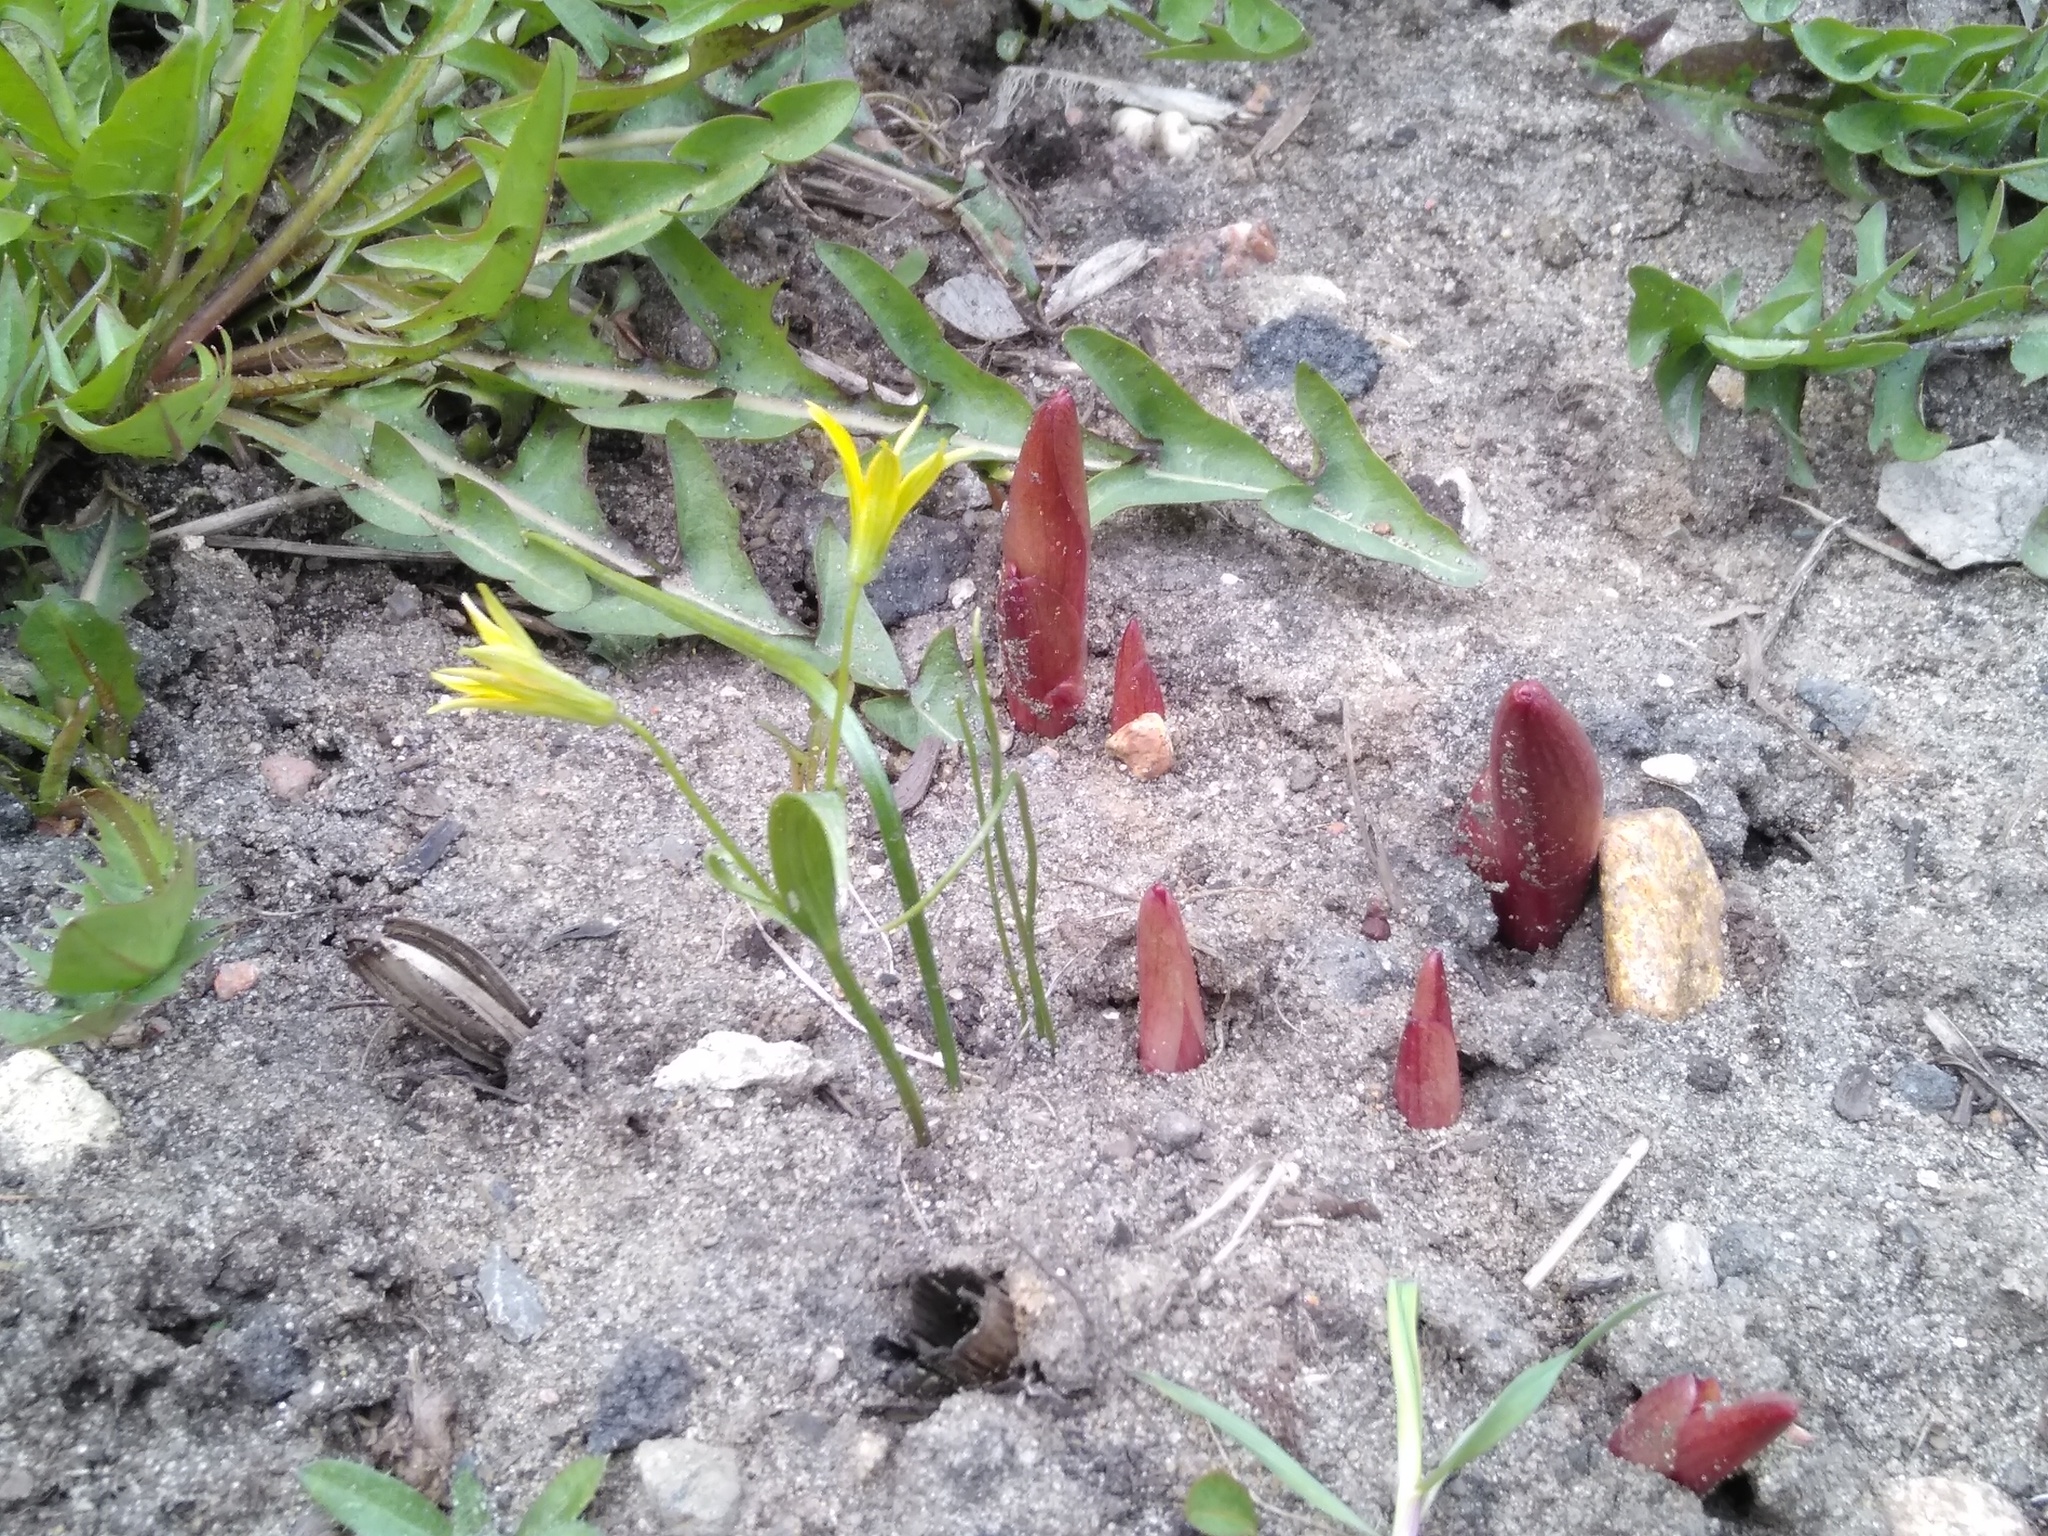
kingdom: Plantae
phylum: Tracheophyta
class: Liliopsida
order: Liliales
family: Liliaceae
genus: Gagea
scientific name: Gagea minima
